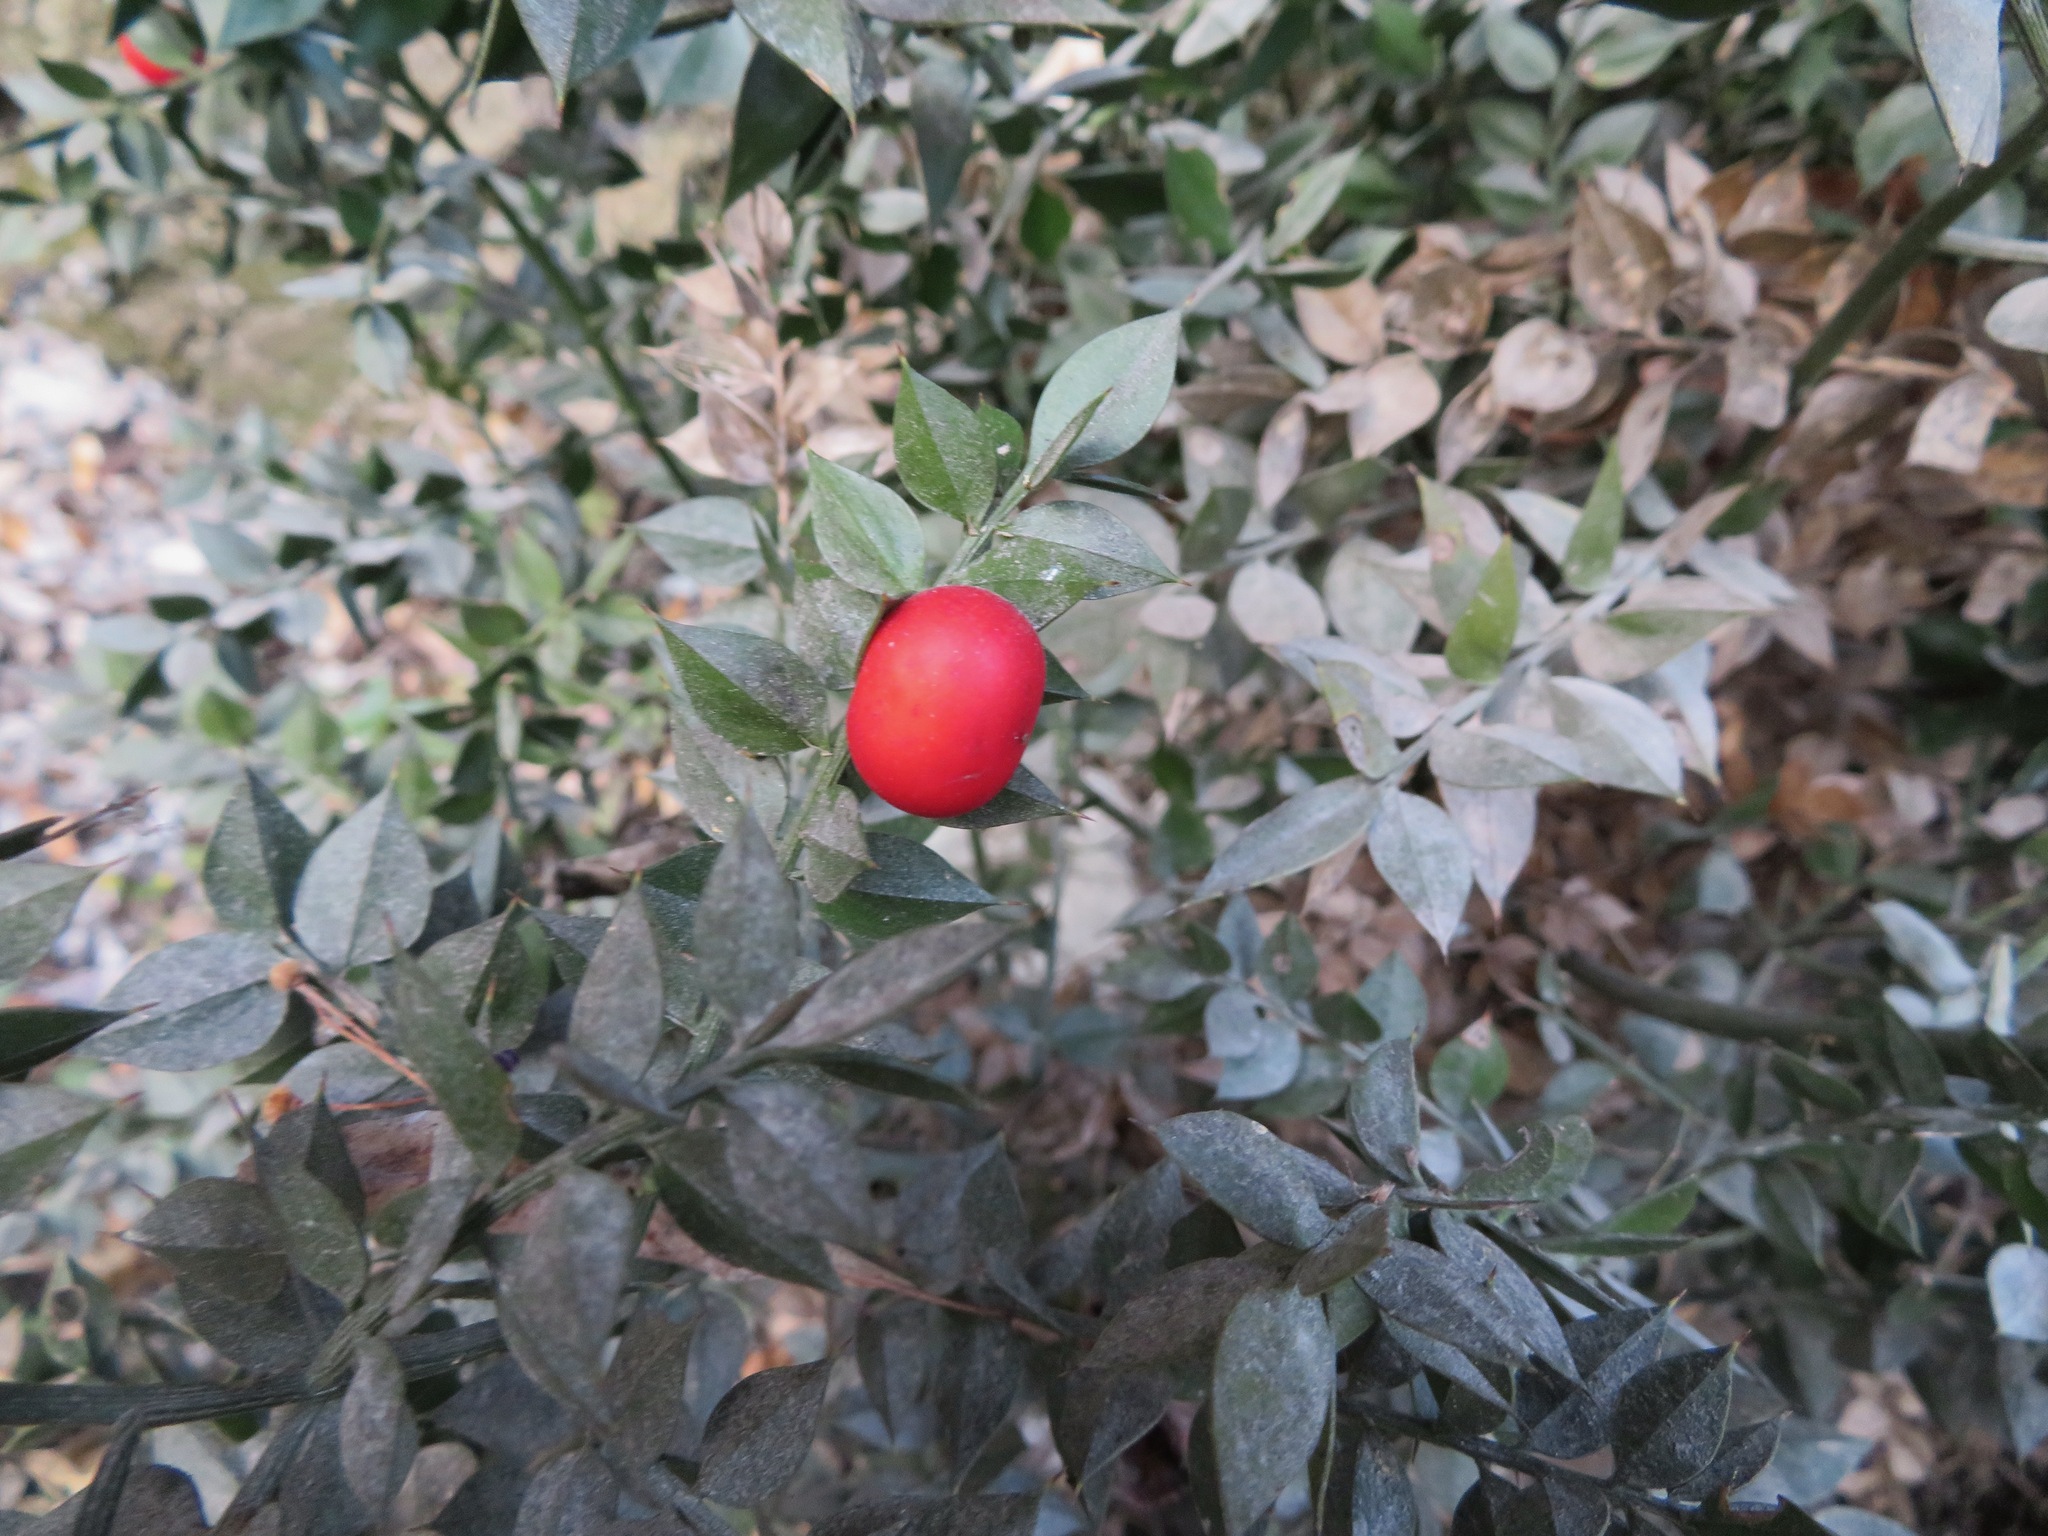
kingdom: Plantae
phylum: Tracheophyta
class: Liliopsida
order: Asparagales
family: Asparagaceae
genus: Ruscus
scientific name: Ruscus aculeatus
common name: Butcher's-broom
